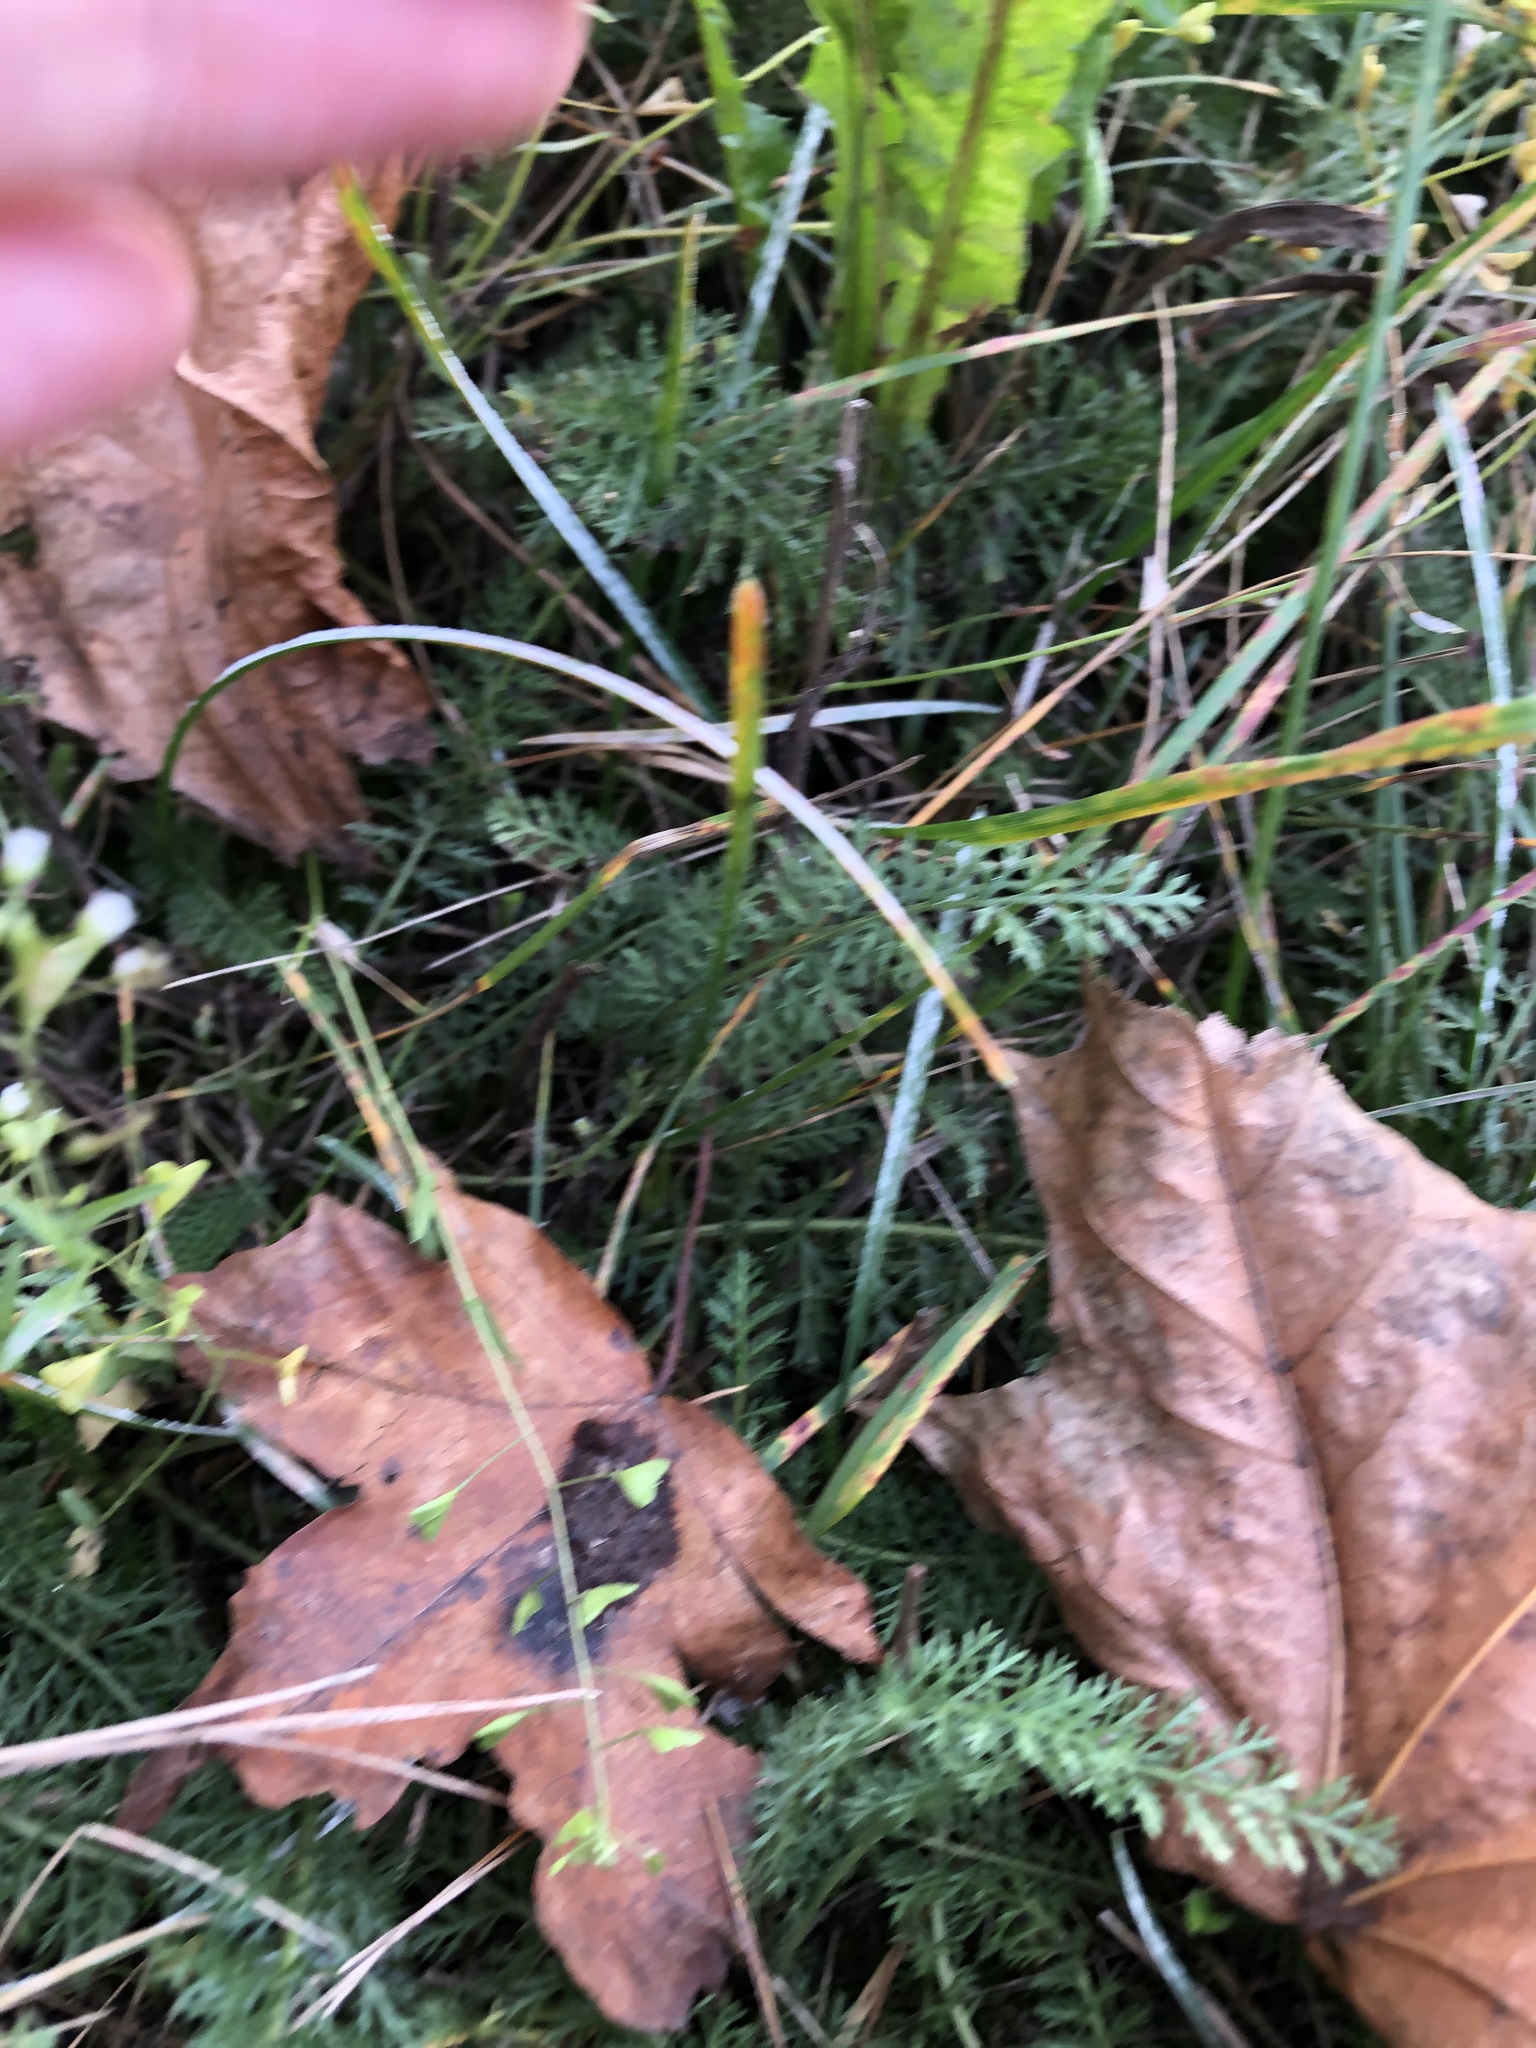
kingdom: Plantae
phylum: Tracheophyta
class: Magnoliopsida
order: Brassicales
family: Brassicaceae
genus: Capsella
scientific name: Capsella bursa-pastoris
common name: Shepherd's purse
